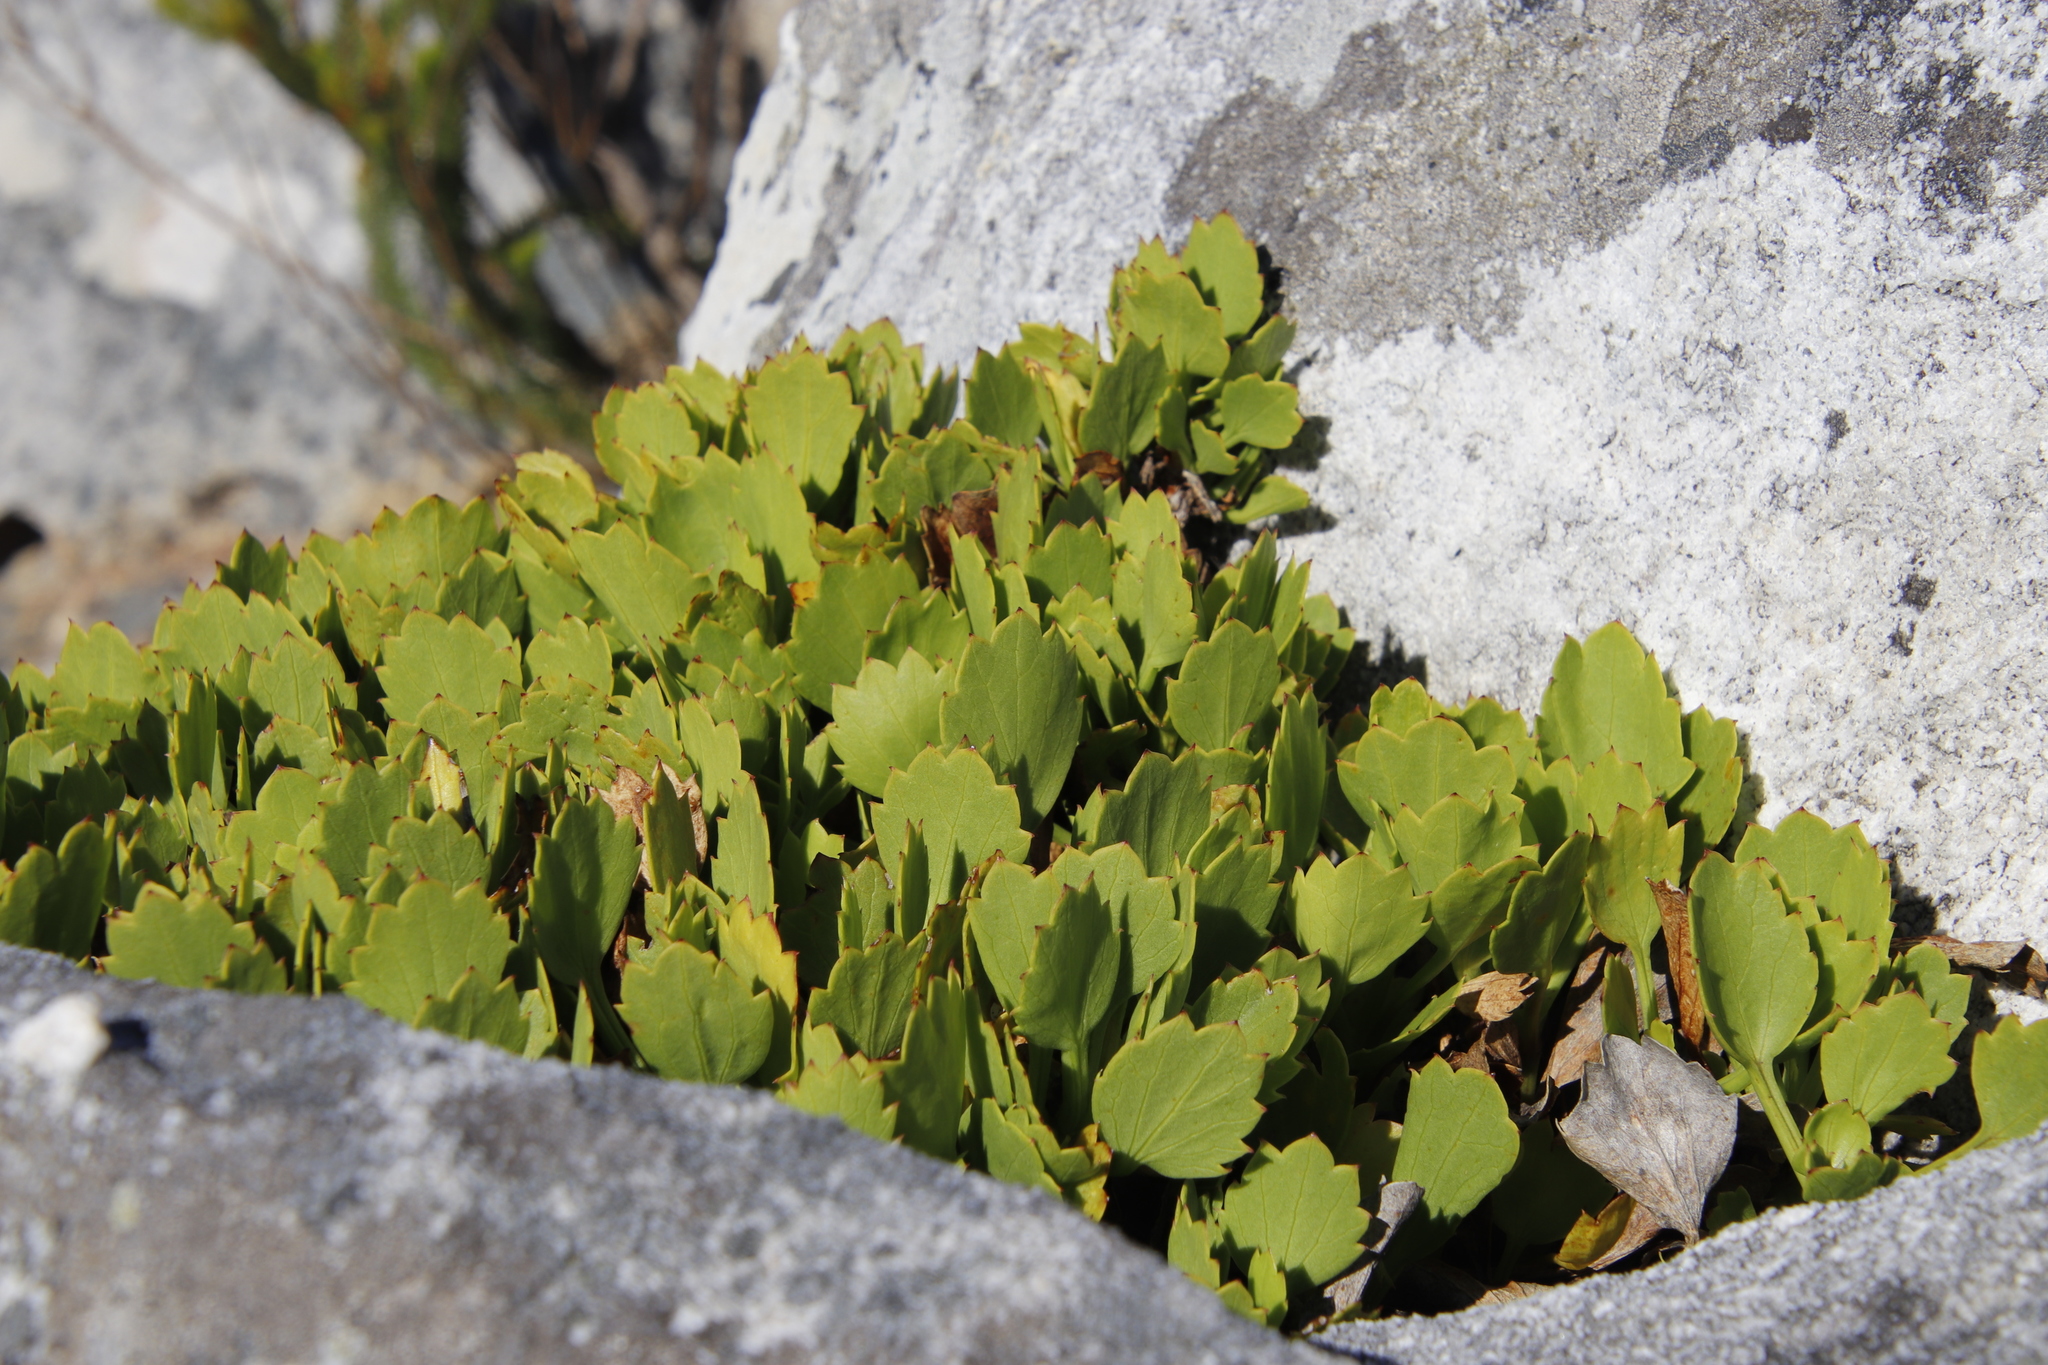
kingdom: Plantae
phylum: Tracheophyta
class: Magnoliopsida
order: Apiales
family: Apiaceae
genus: Centella
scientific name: Centella triloba
